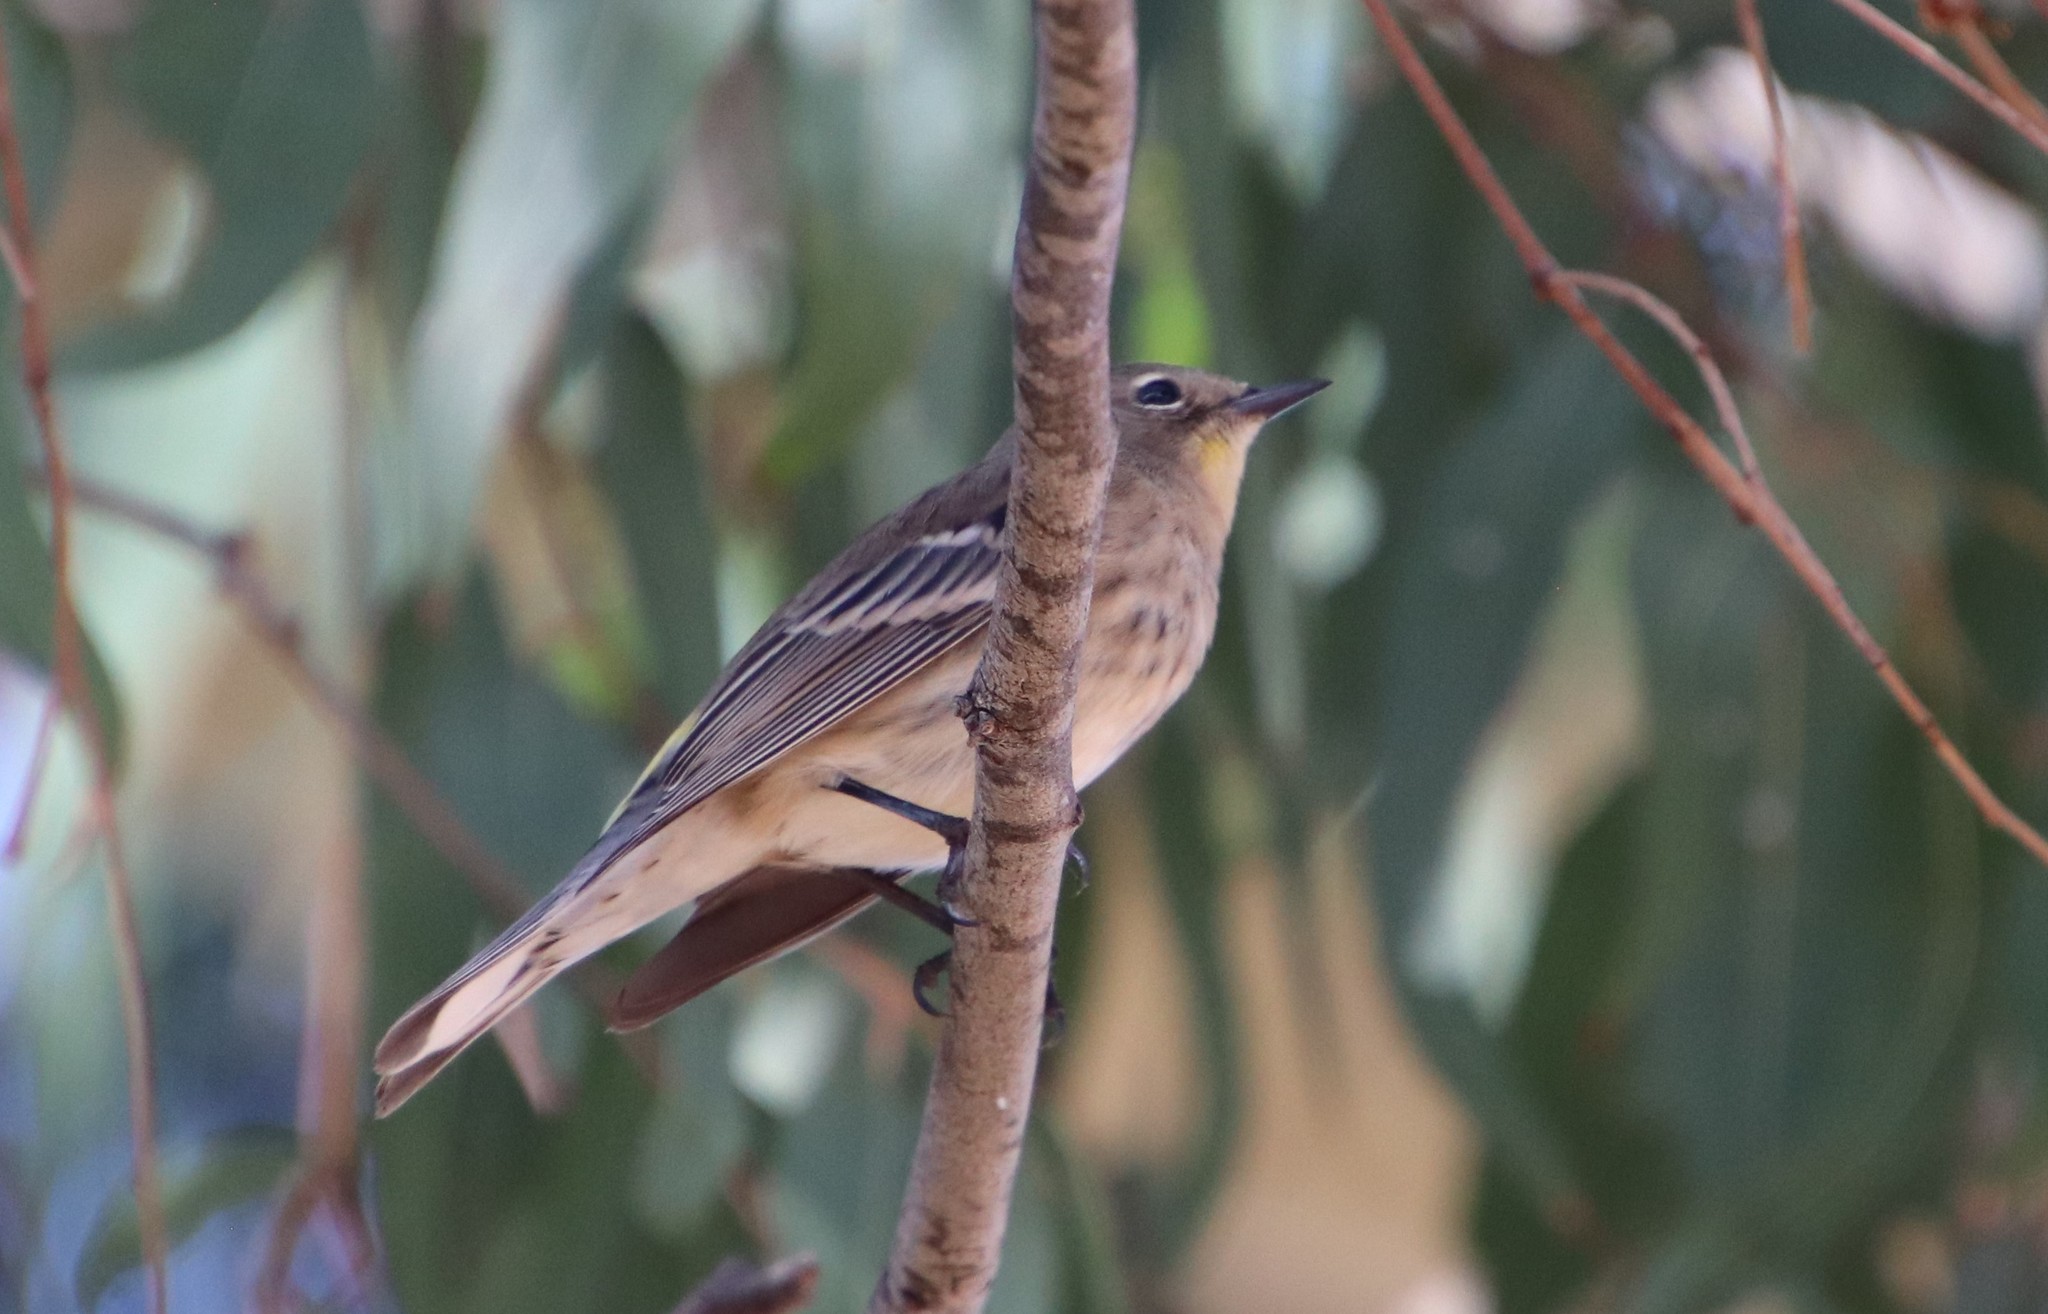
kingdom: Animalia
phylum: Chordata
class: Aves
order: Passeriformes
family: Parulidae
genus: Setophaga
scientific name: Setophaga auduboni
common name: Audubon's warbler
